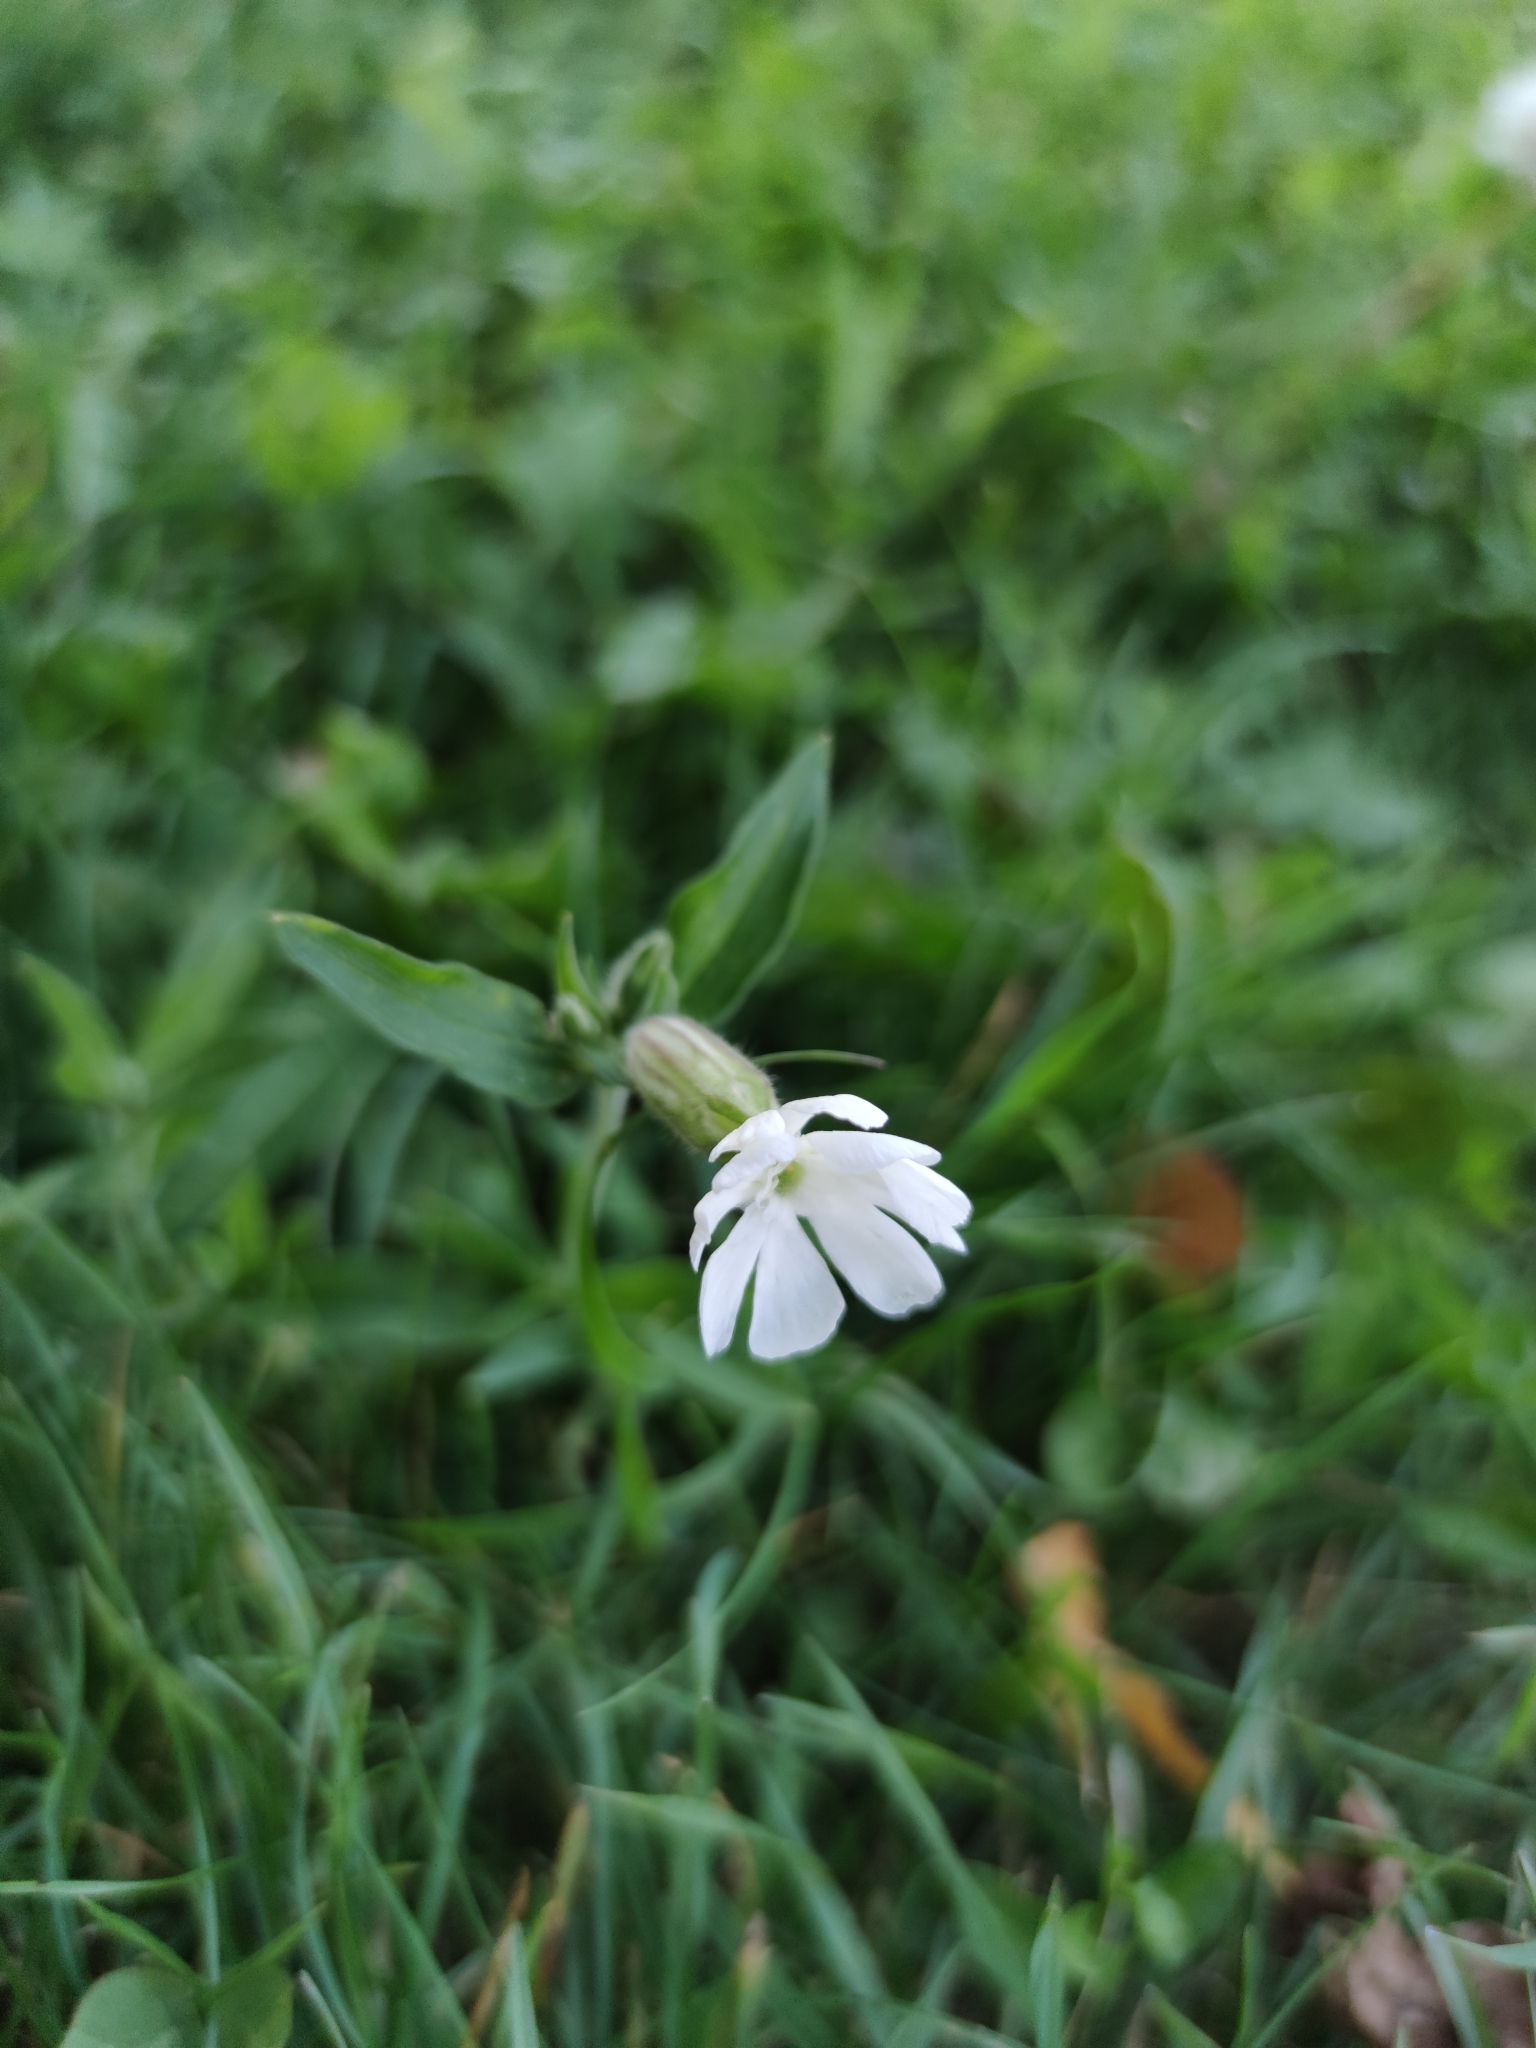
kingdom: Plantae
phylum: Tracheophyta
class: Magnoliopsida
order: Caryophyllales
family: Caryophyllaceae
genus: Silene
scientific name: Silene latifolia
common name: White campion
